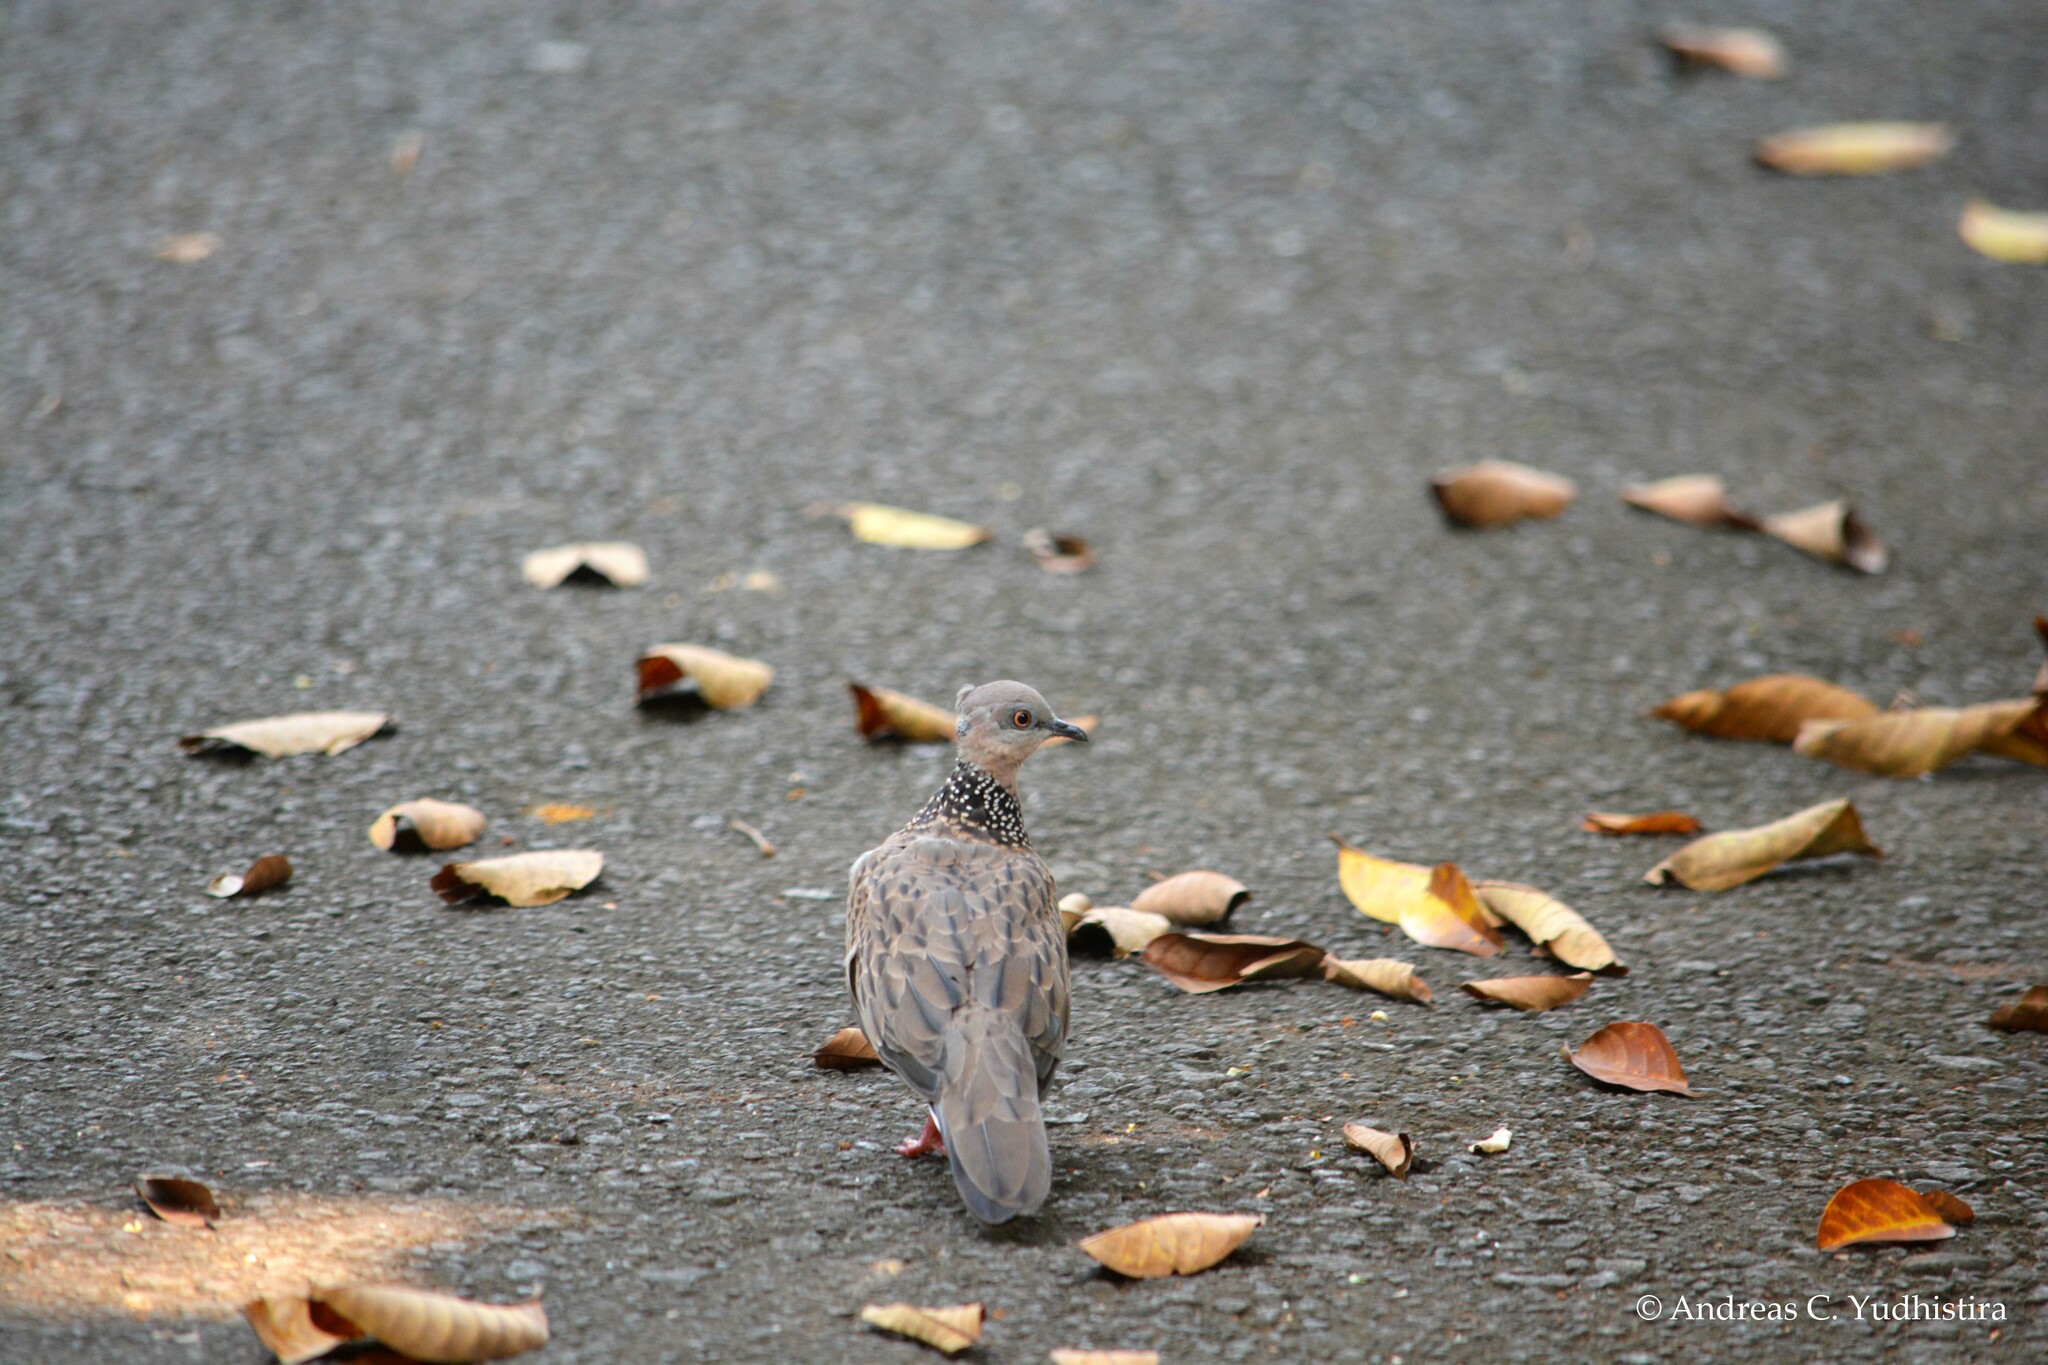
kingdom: Animalia
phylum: Chordata
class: Aves
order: Columbiformes
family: Columbidae
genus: Spilopelia
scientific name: Spilopelia chinensis
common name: Spotted dove
